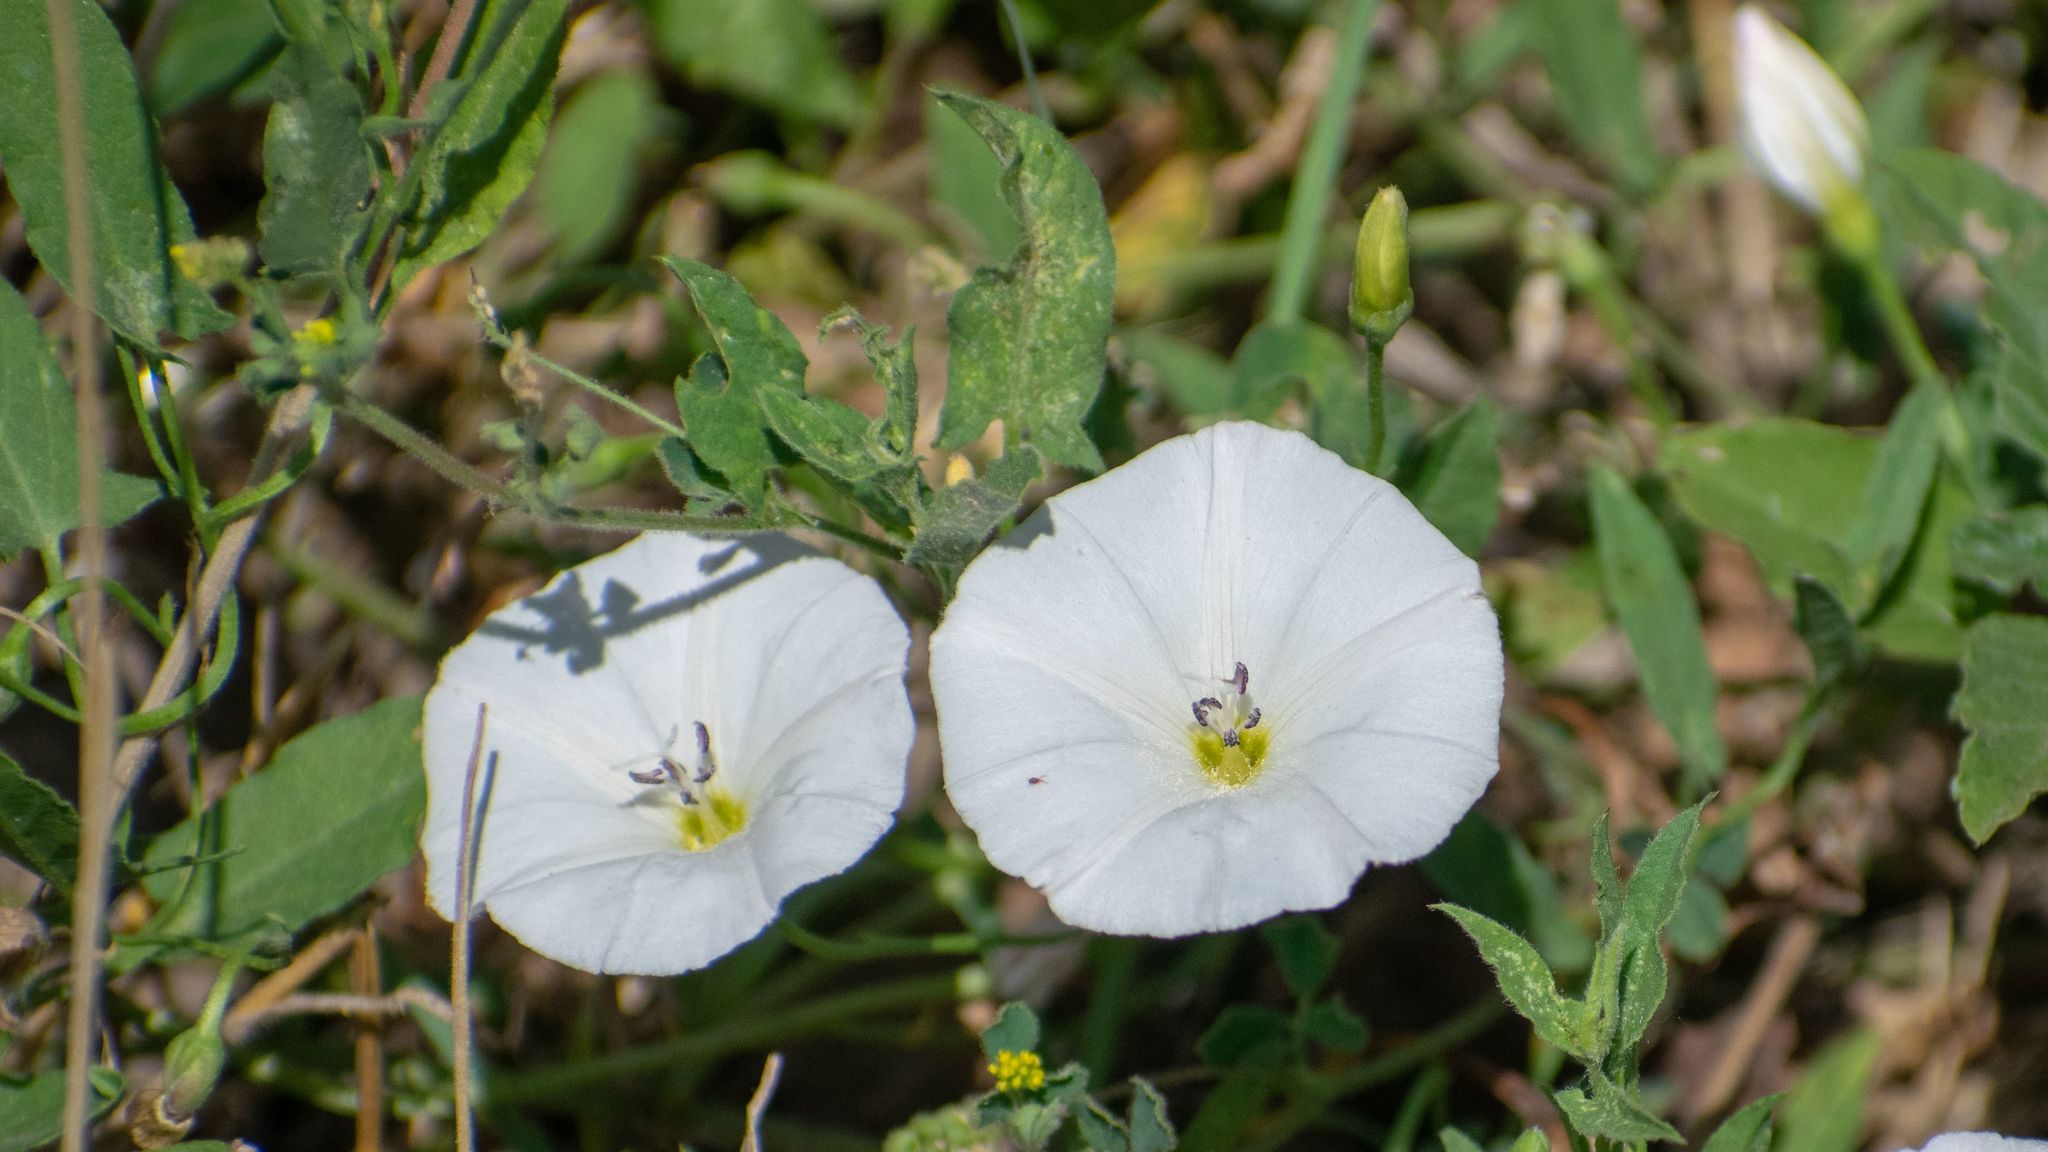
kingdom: Plantae
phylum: Tracheophyta
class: Magnoliopsida
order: Solanales
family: Convolvulaceae
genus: Convolvulus
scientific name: Convolvulus arvensis
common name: Field bindweed
